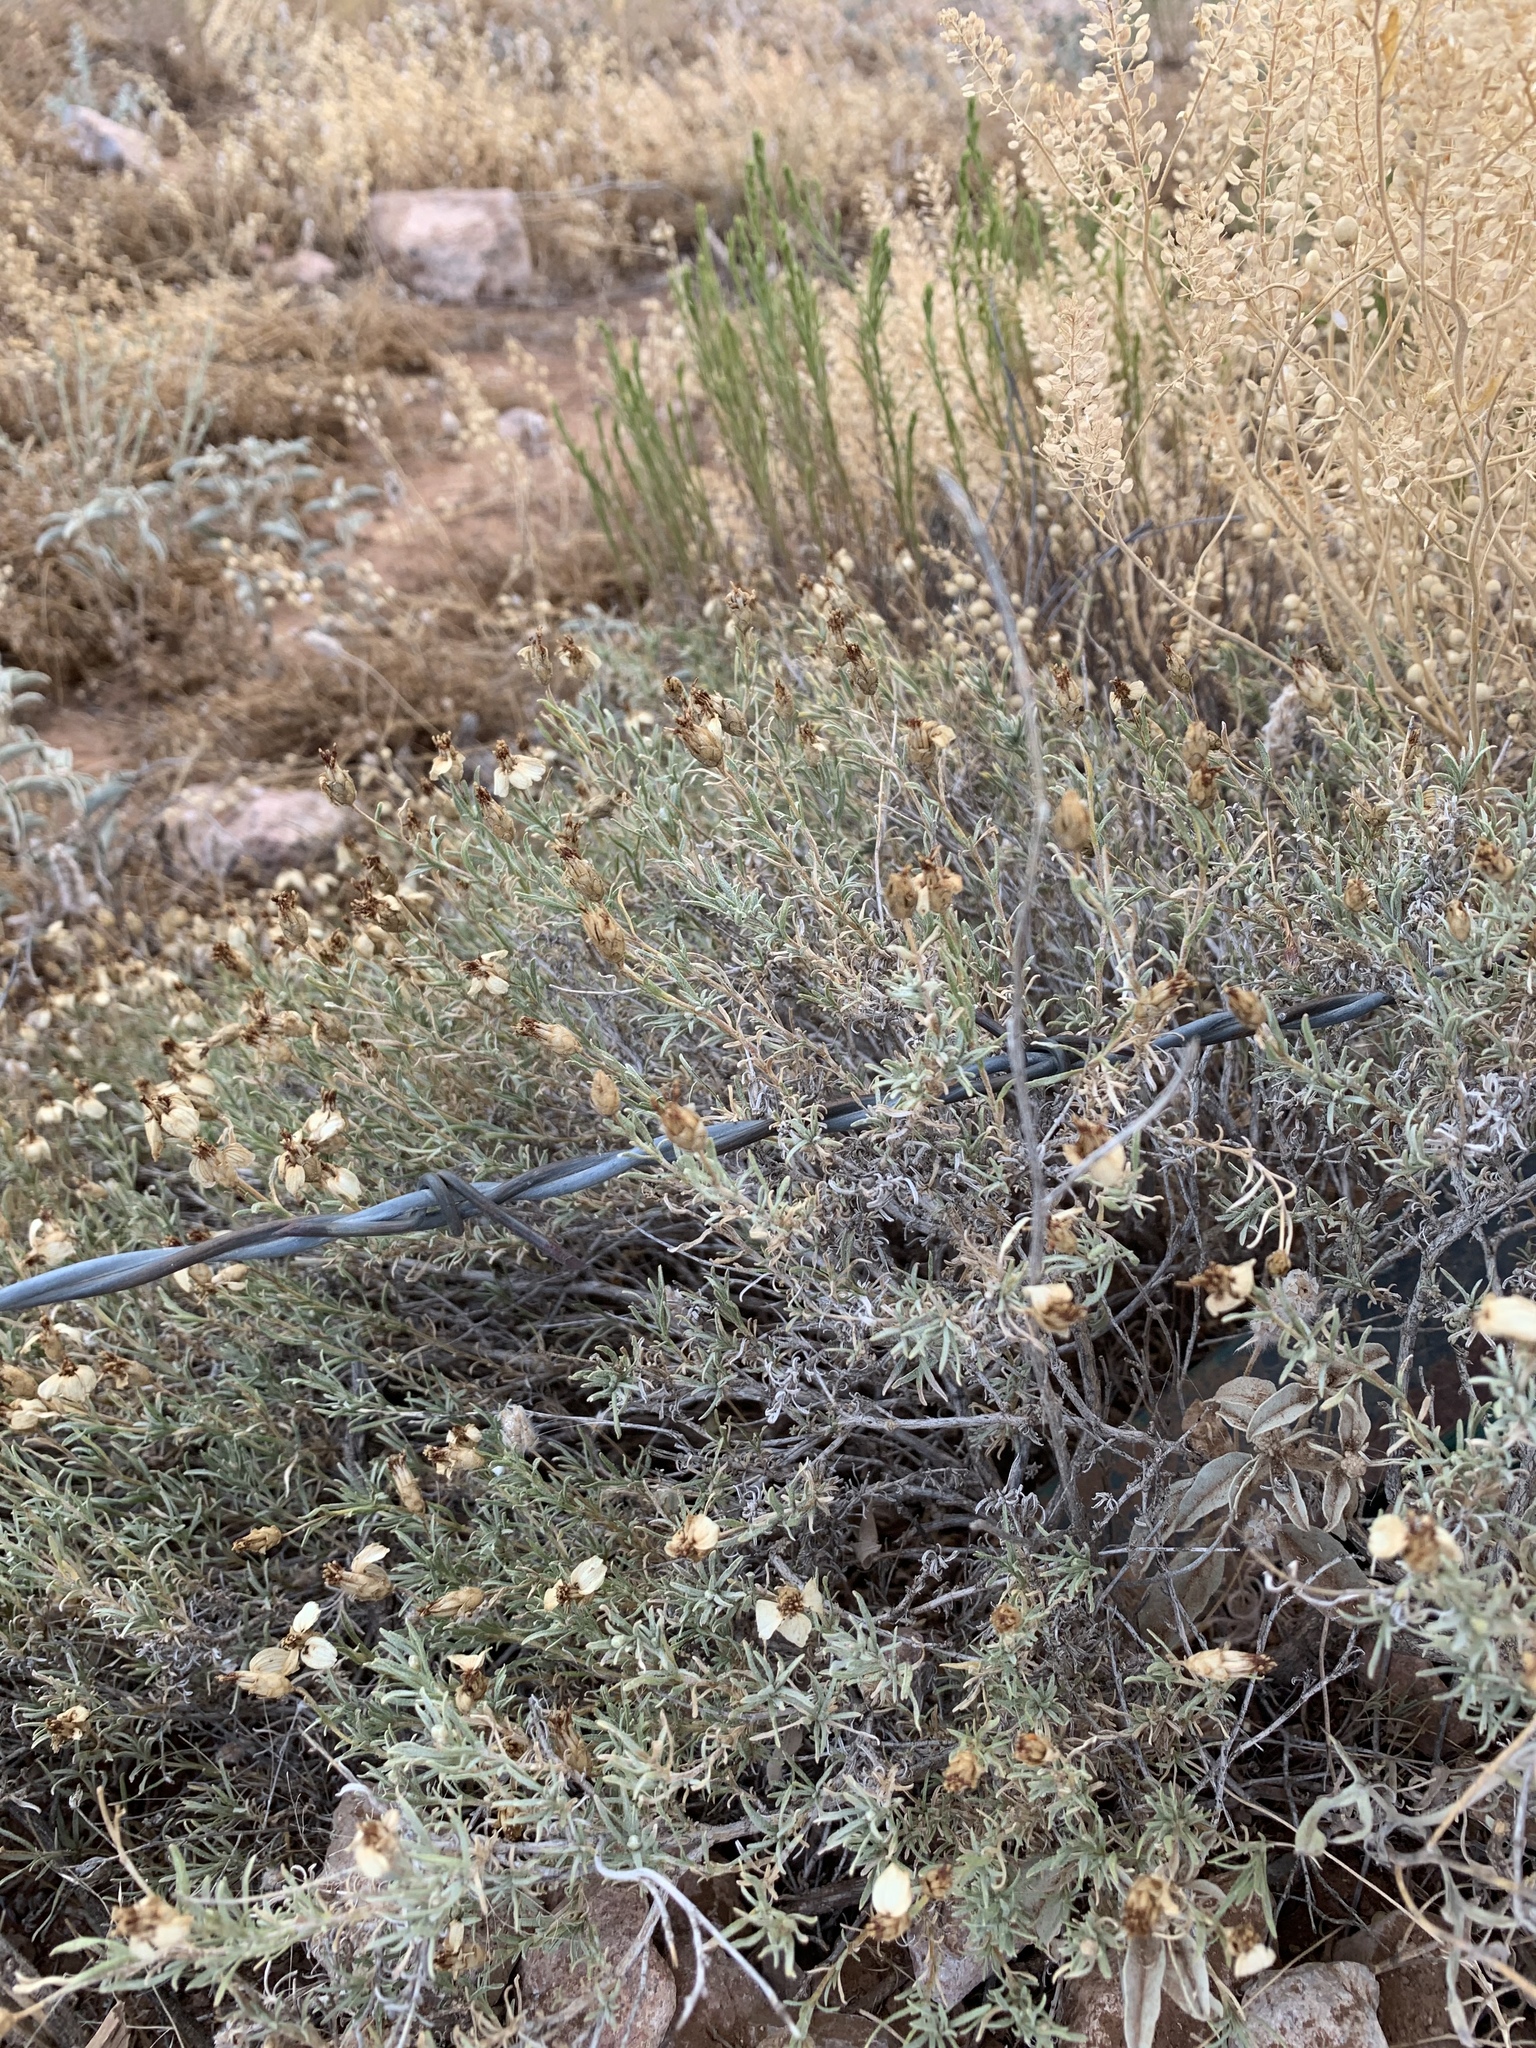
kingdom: Plantae
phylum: Tracheophyta
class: Magnoliopsida
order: Asterales
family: Asteraceae
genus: Zinnia
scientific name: Zinnia acerosa
